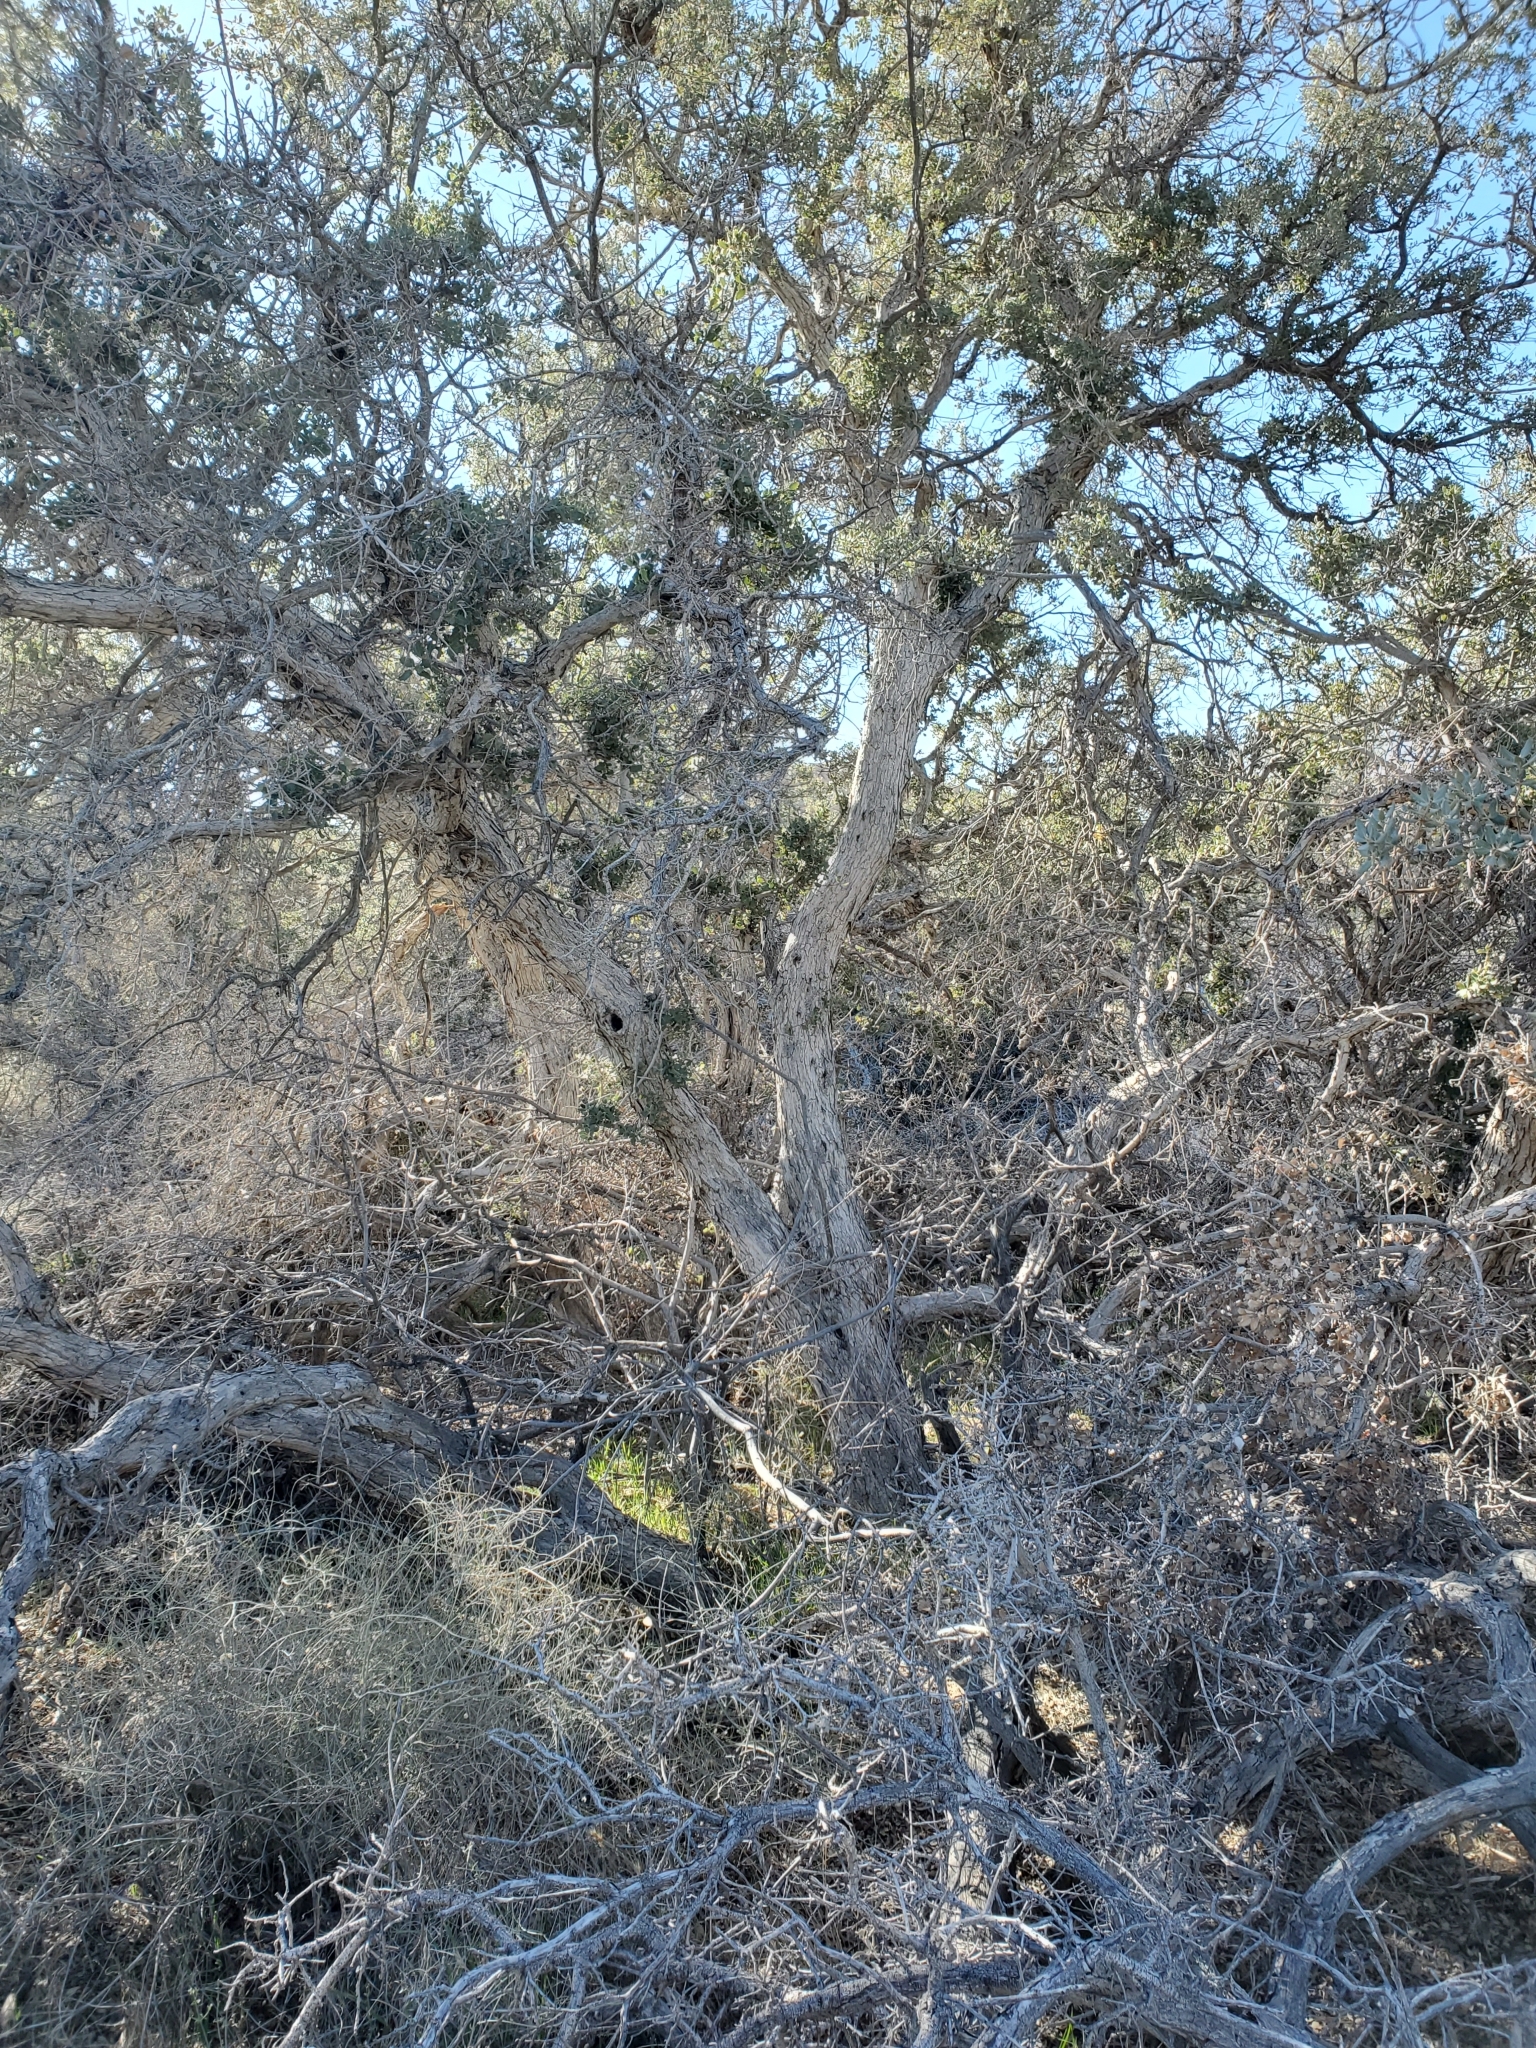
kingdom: Plantae
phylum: Tracheophyta
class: Magnoliopsida
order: Fagales
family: Fagaceae
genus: Quercus
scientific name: Quercus cornelius-mulleri
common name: Muller oak
